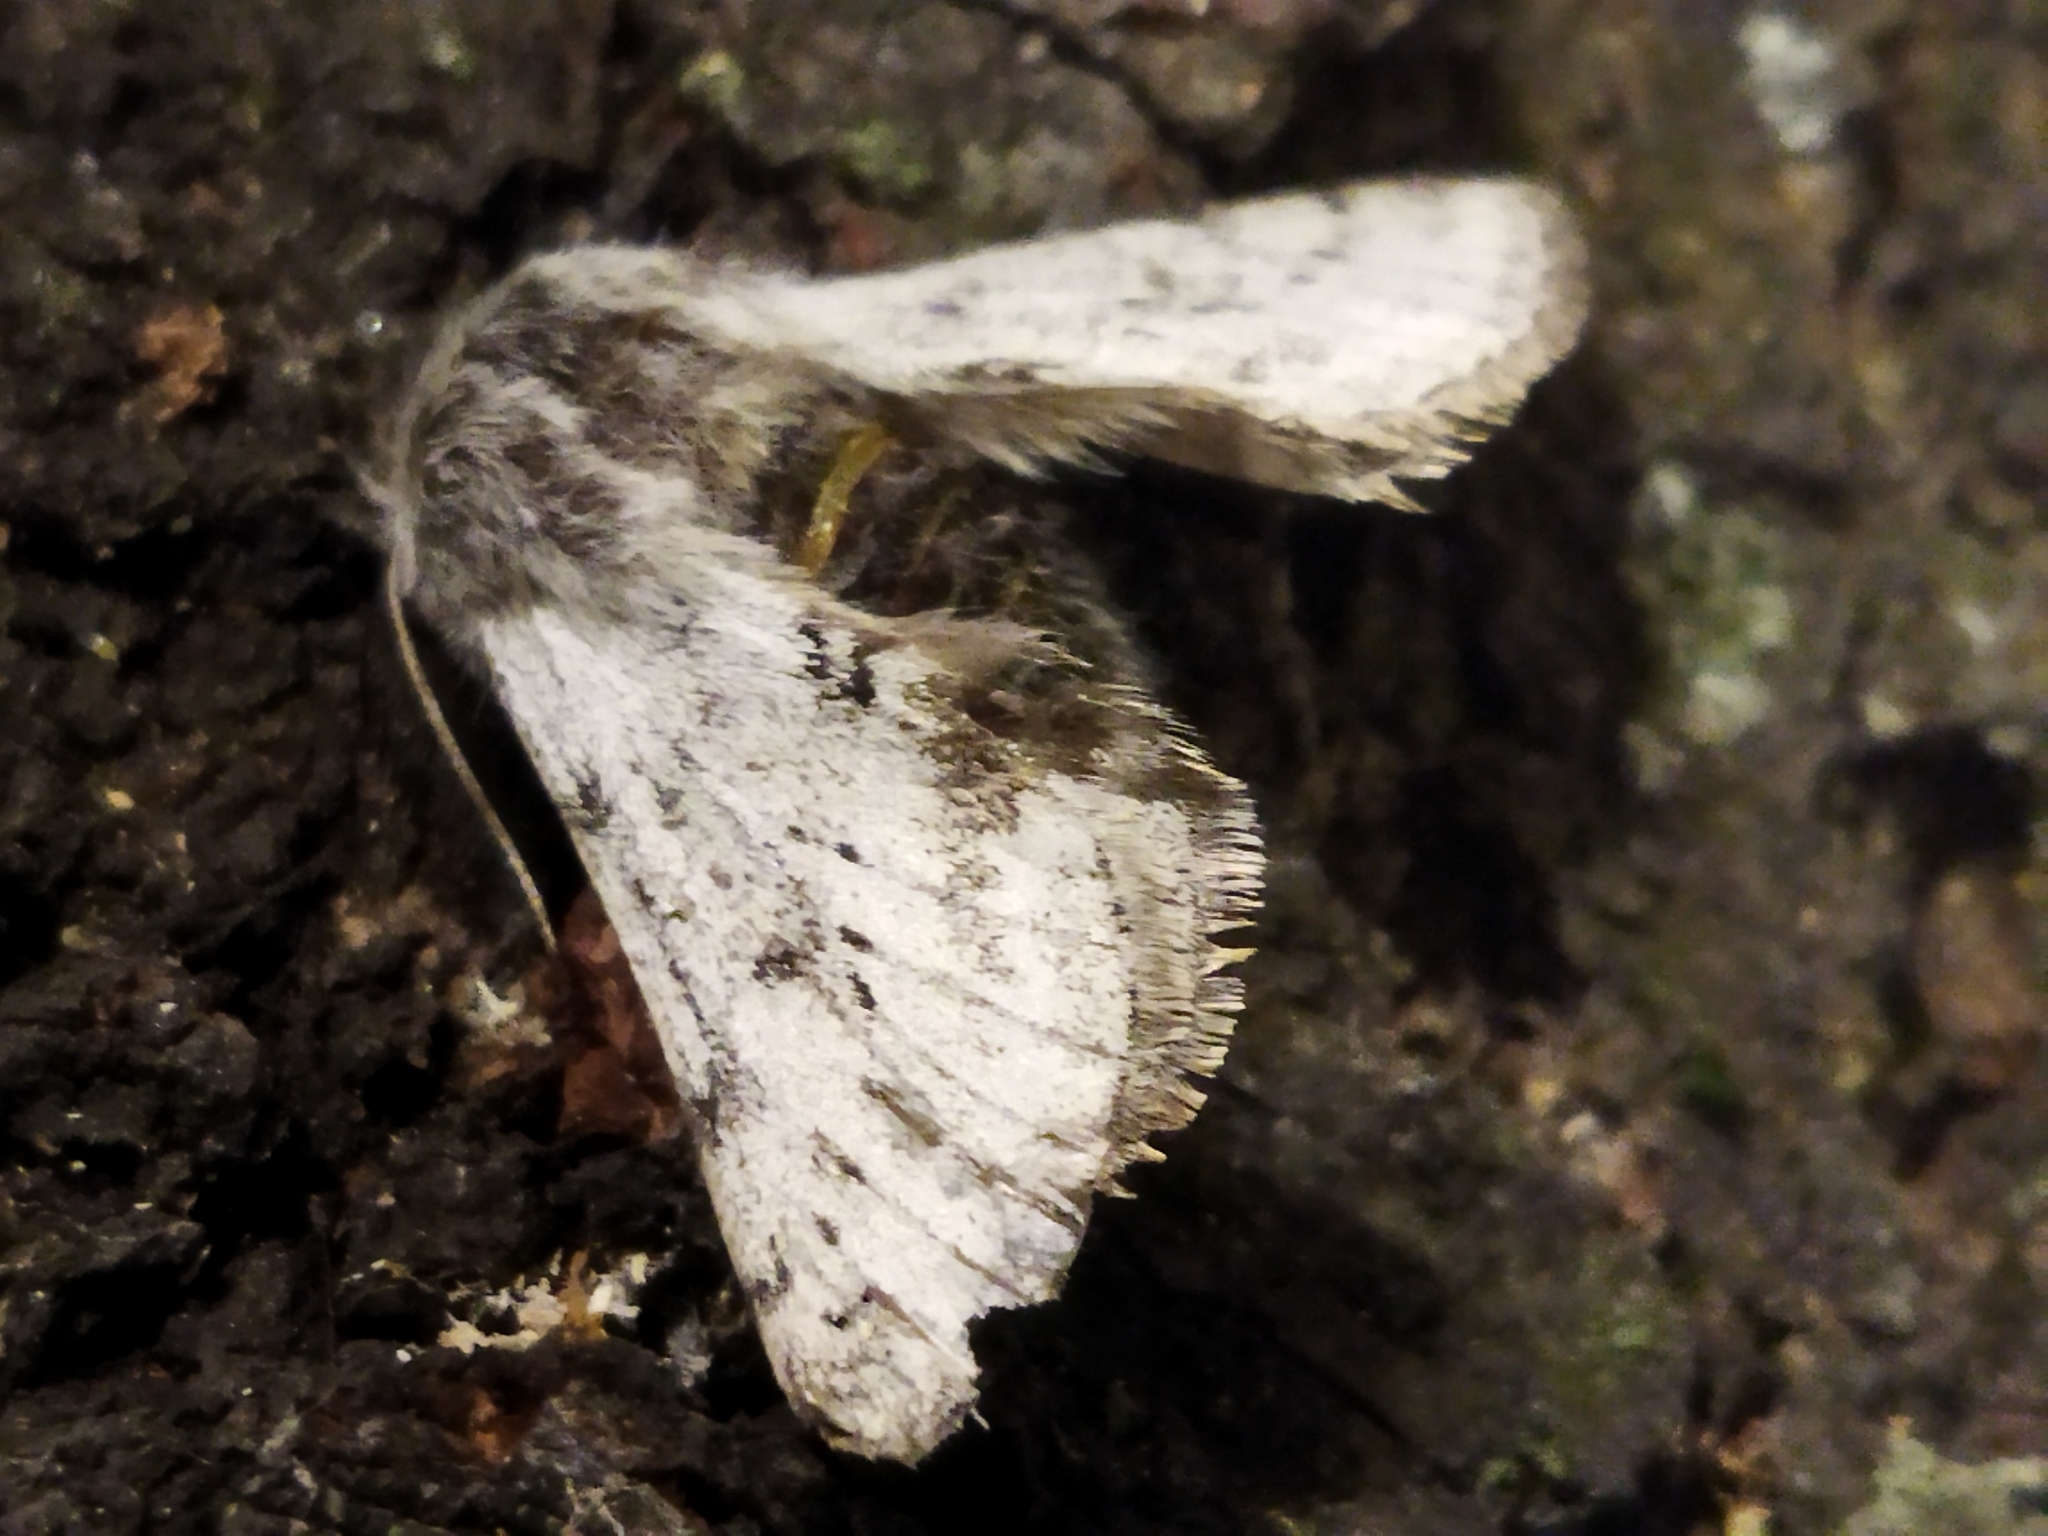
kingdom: Animalia
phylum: Arthropoda
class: Insecta
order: Lepidoptera
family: Geometridae
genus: Lycia
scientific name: Lycia graecarius
